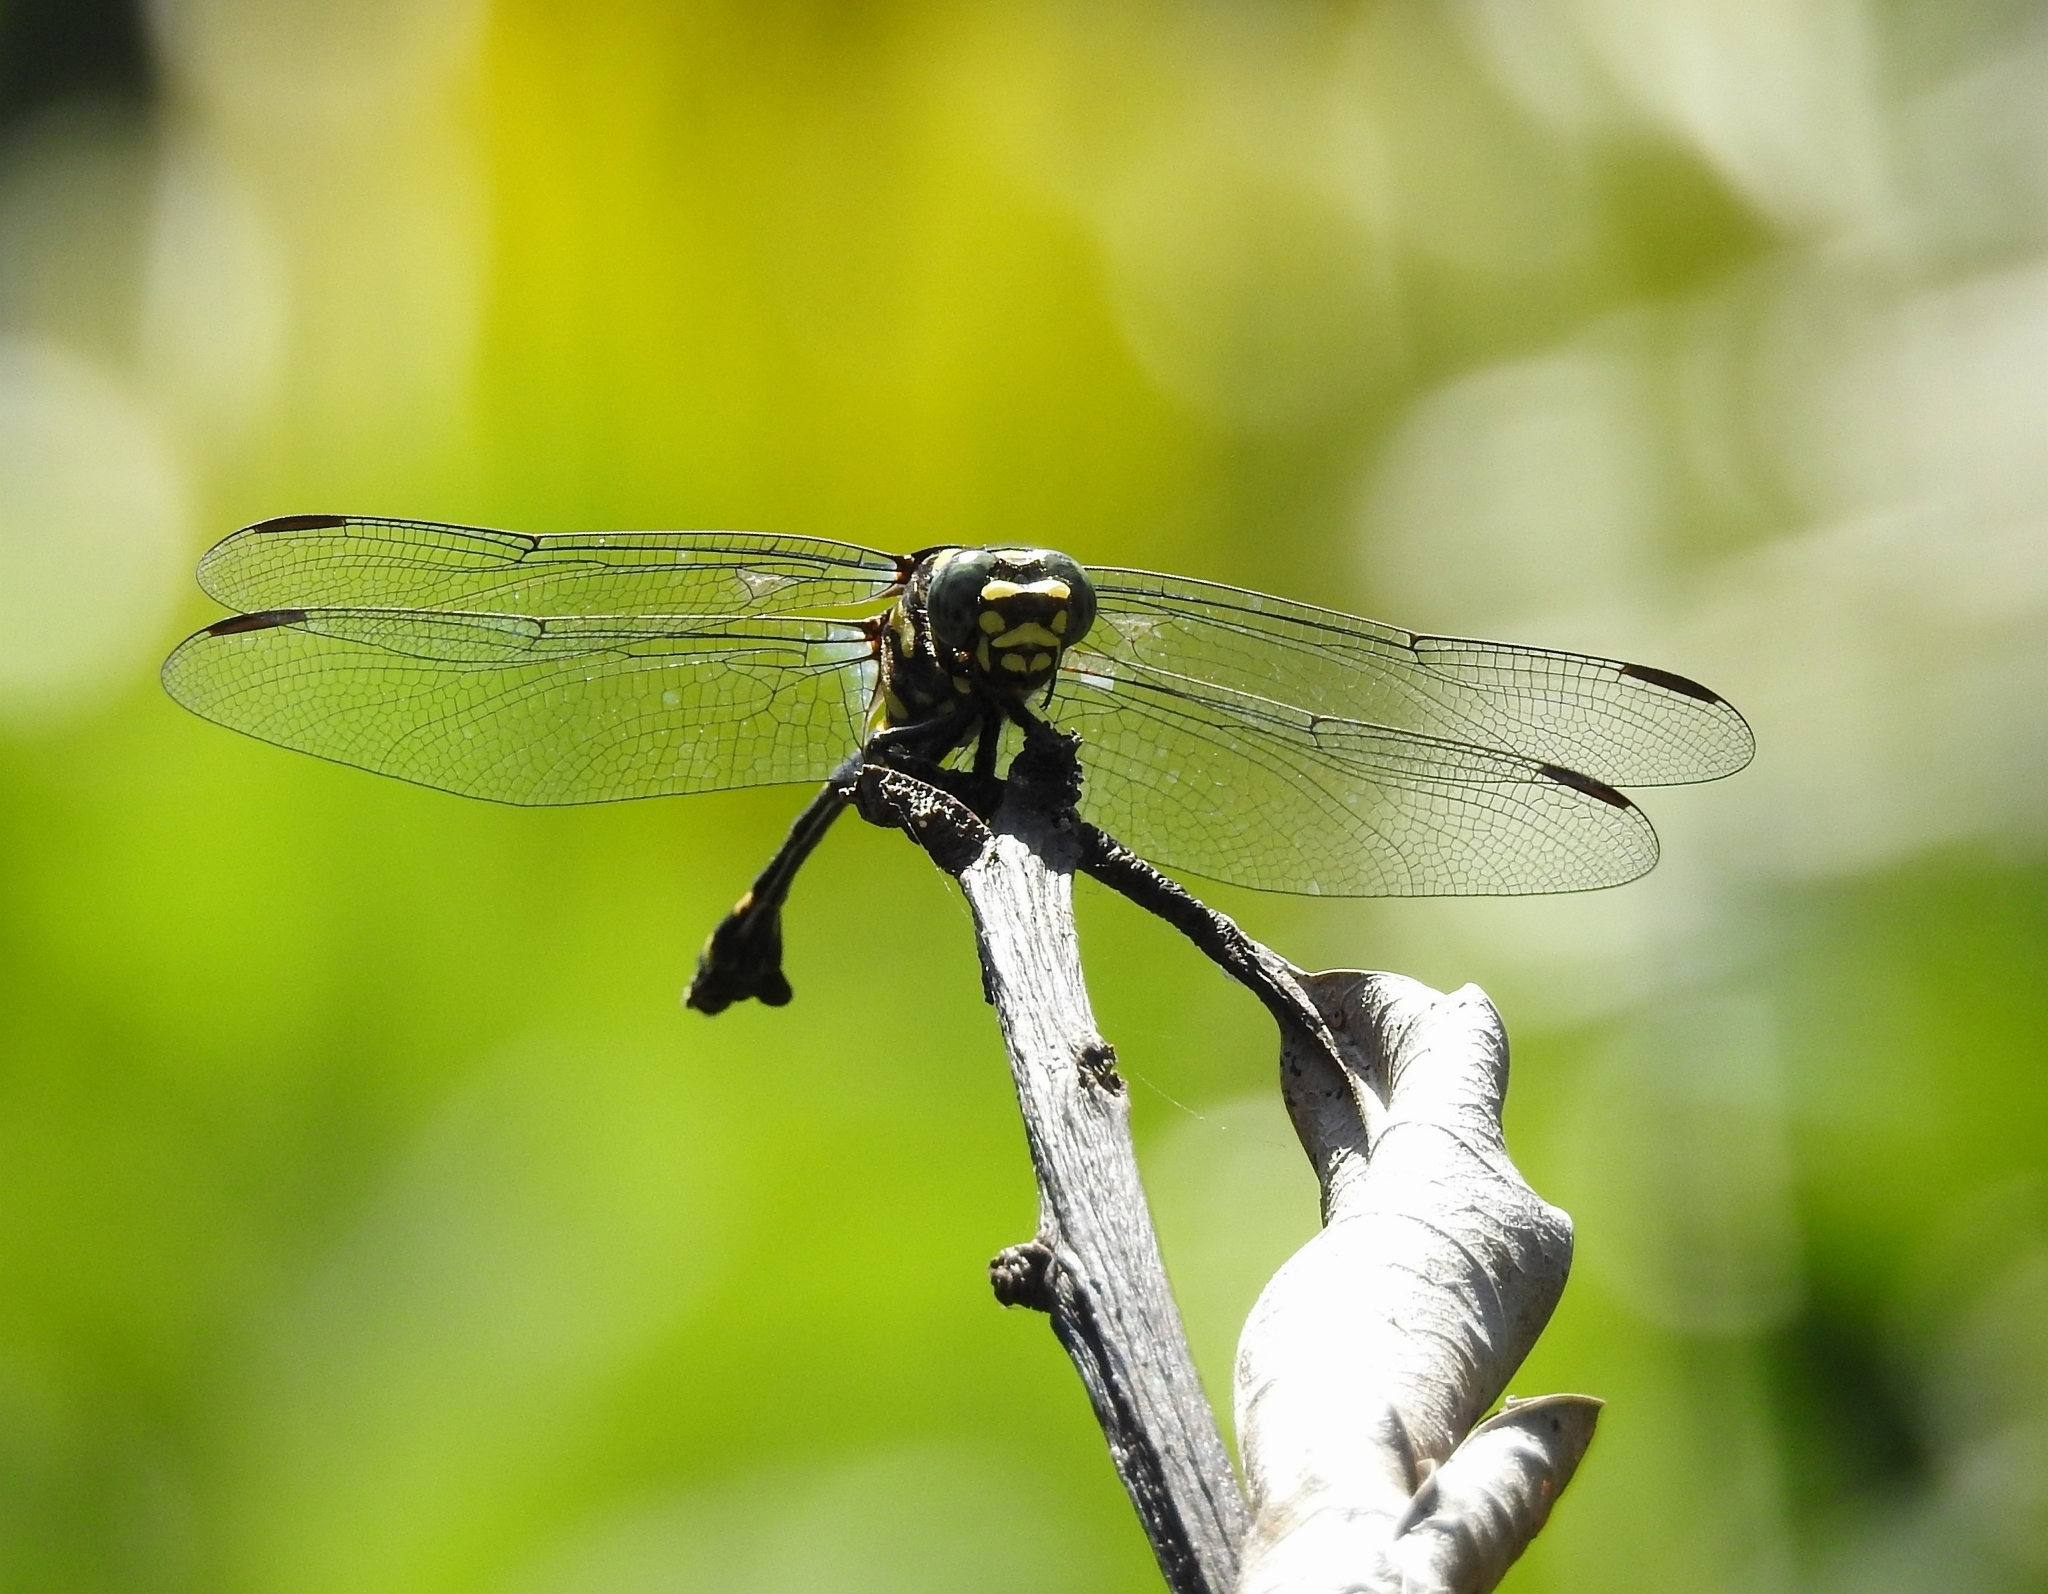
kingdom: Animalia
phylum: Arthropoda
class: Insecta
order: Odonata
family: Gomphidae
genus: Ictinogomphus
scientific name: Ictinogomphus rapax
